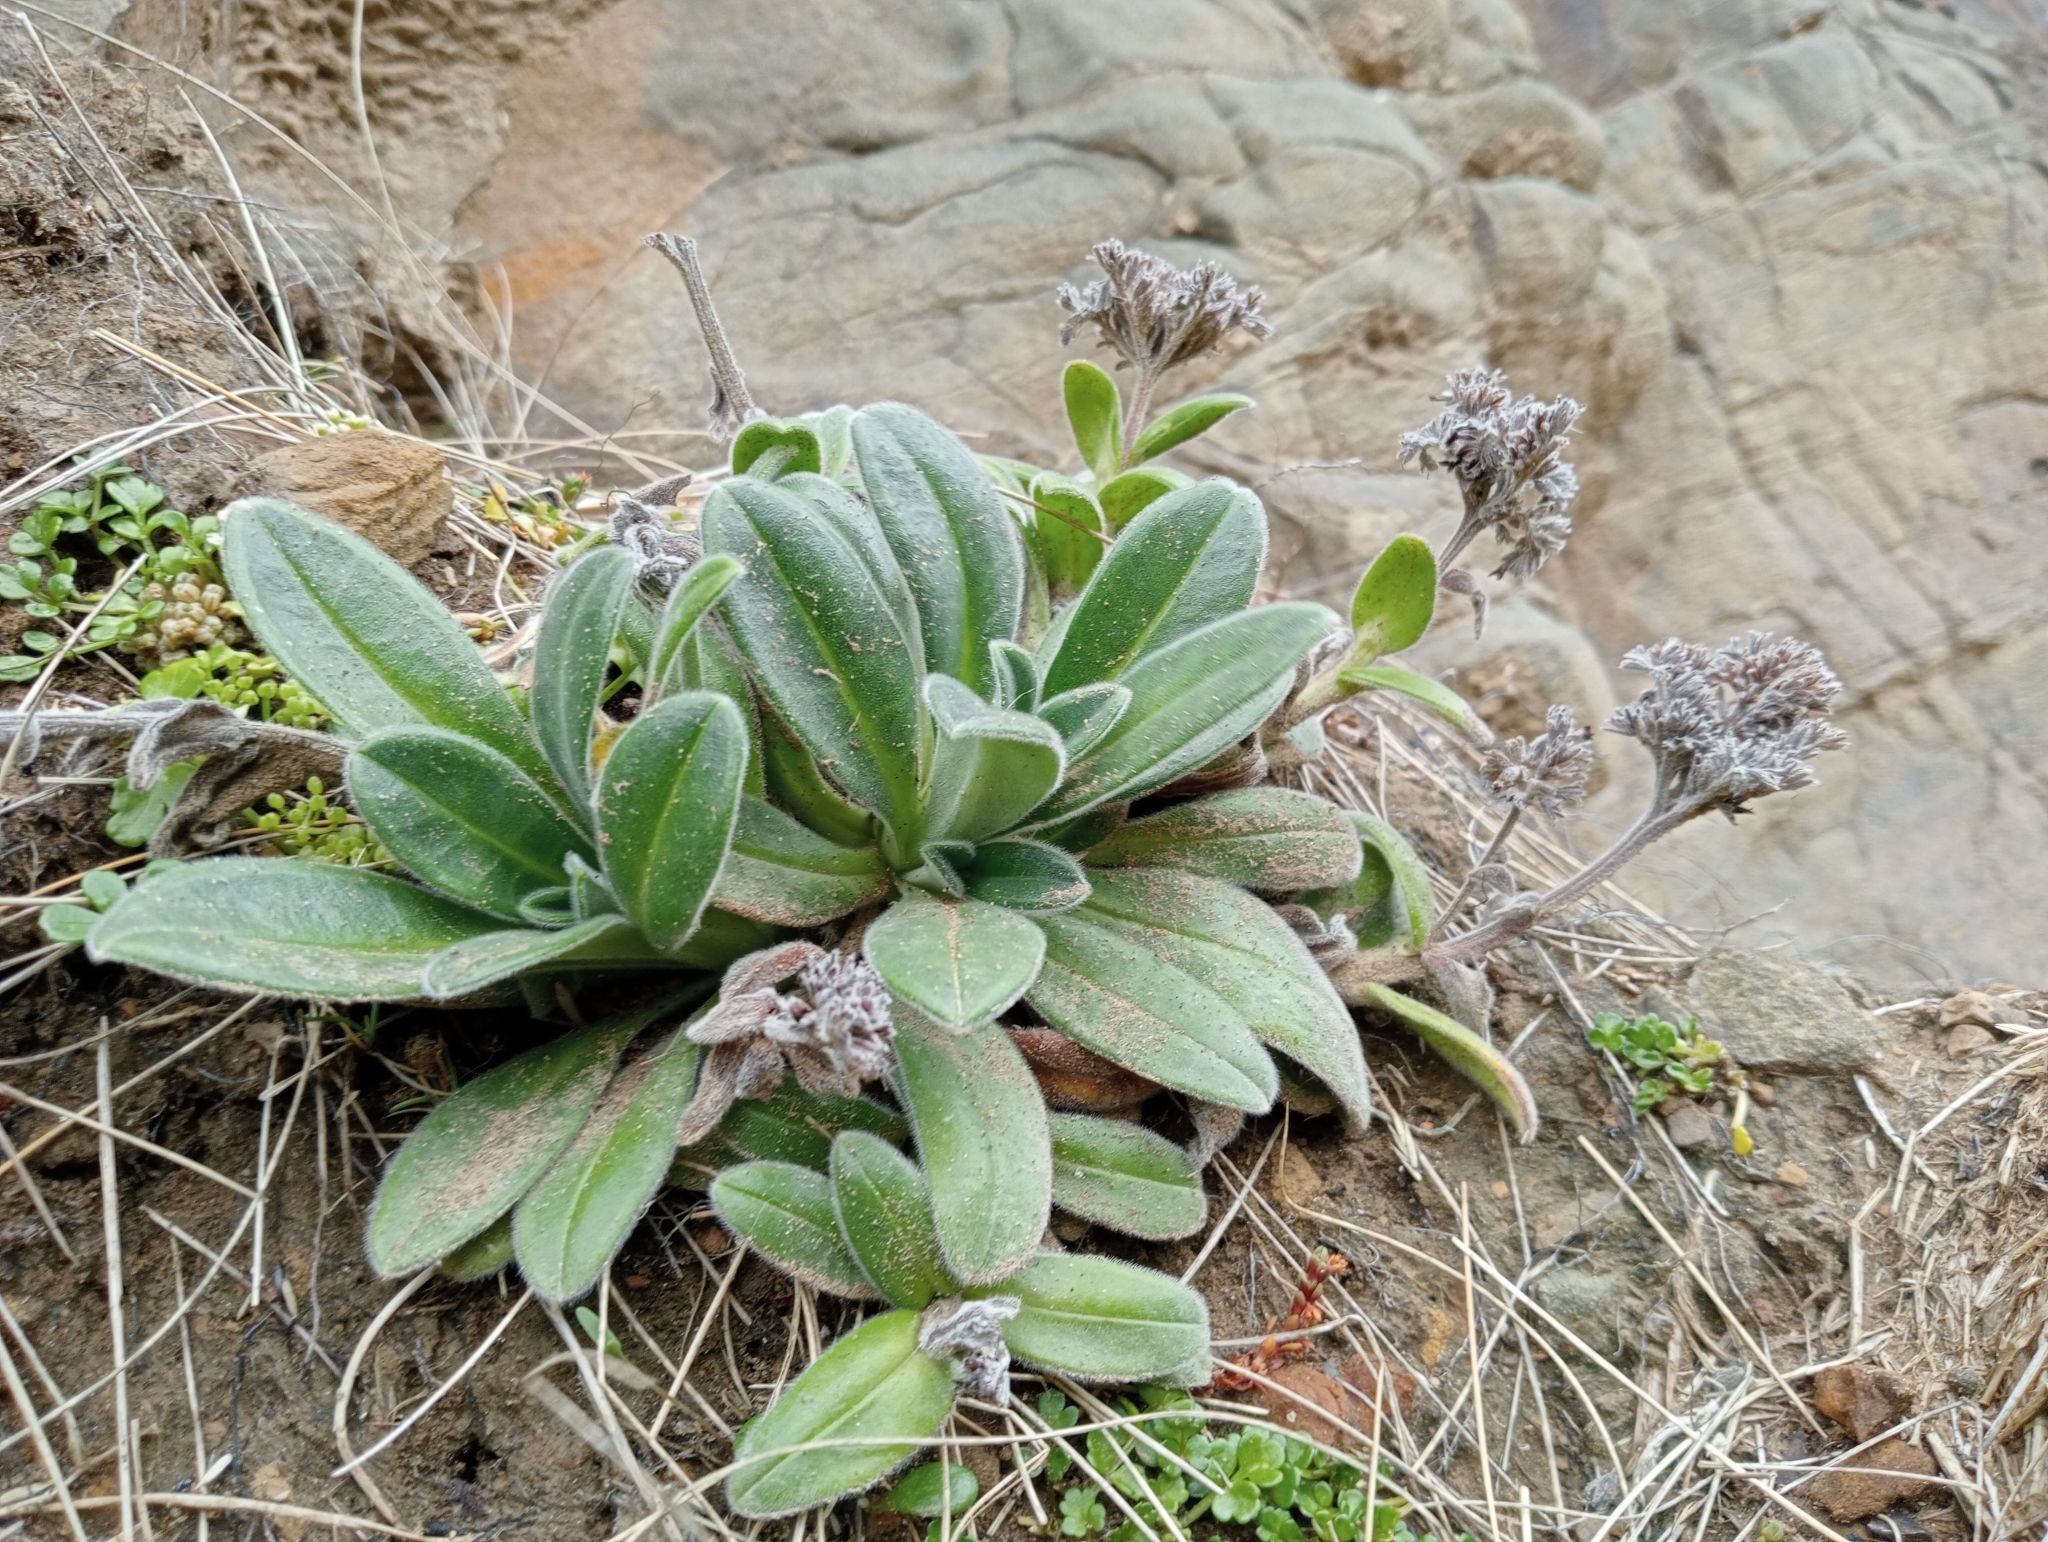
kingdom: Plantae
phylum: Tracheophyta
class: Magnoliopsida
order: Boraginales
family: Boraginaceae
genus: Myosotis
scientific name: Myosotis rakiura
